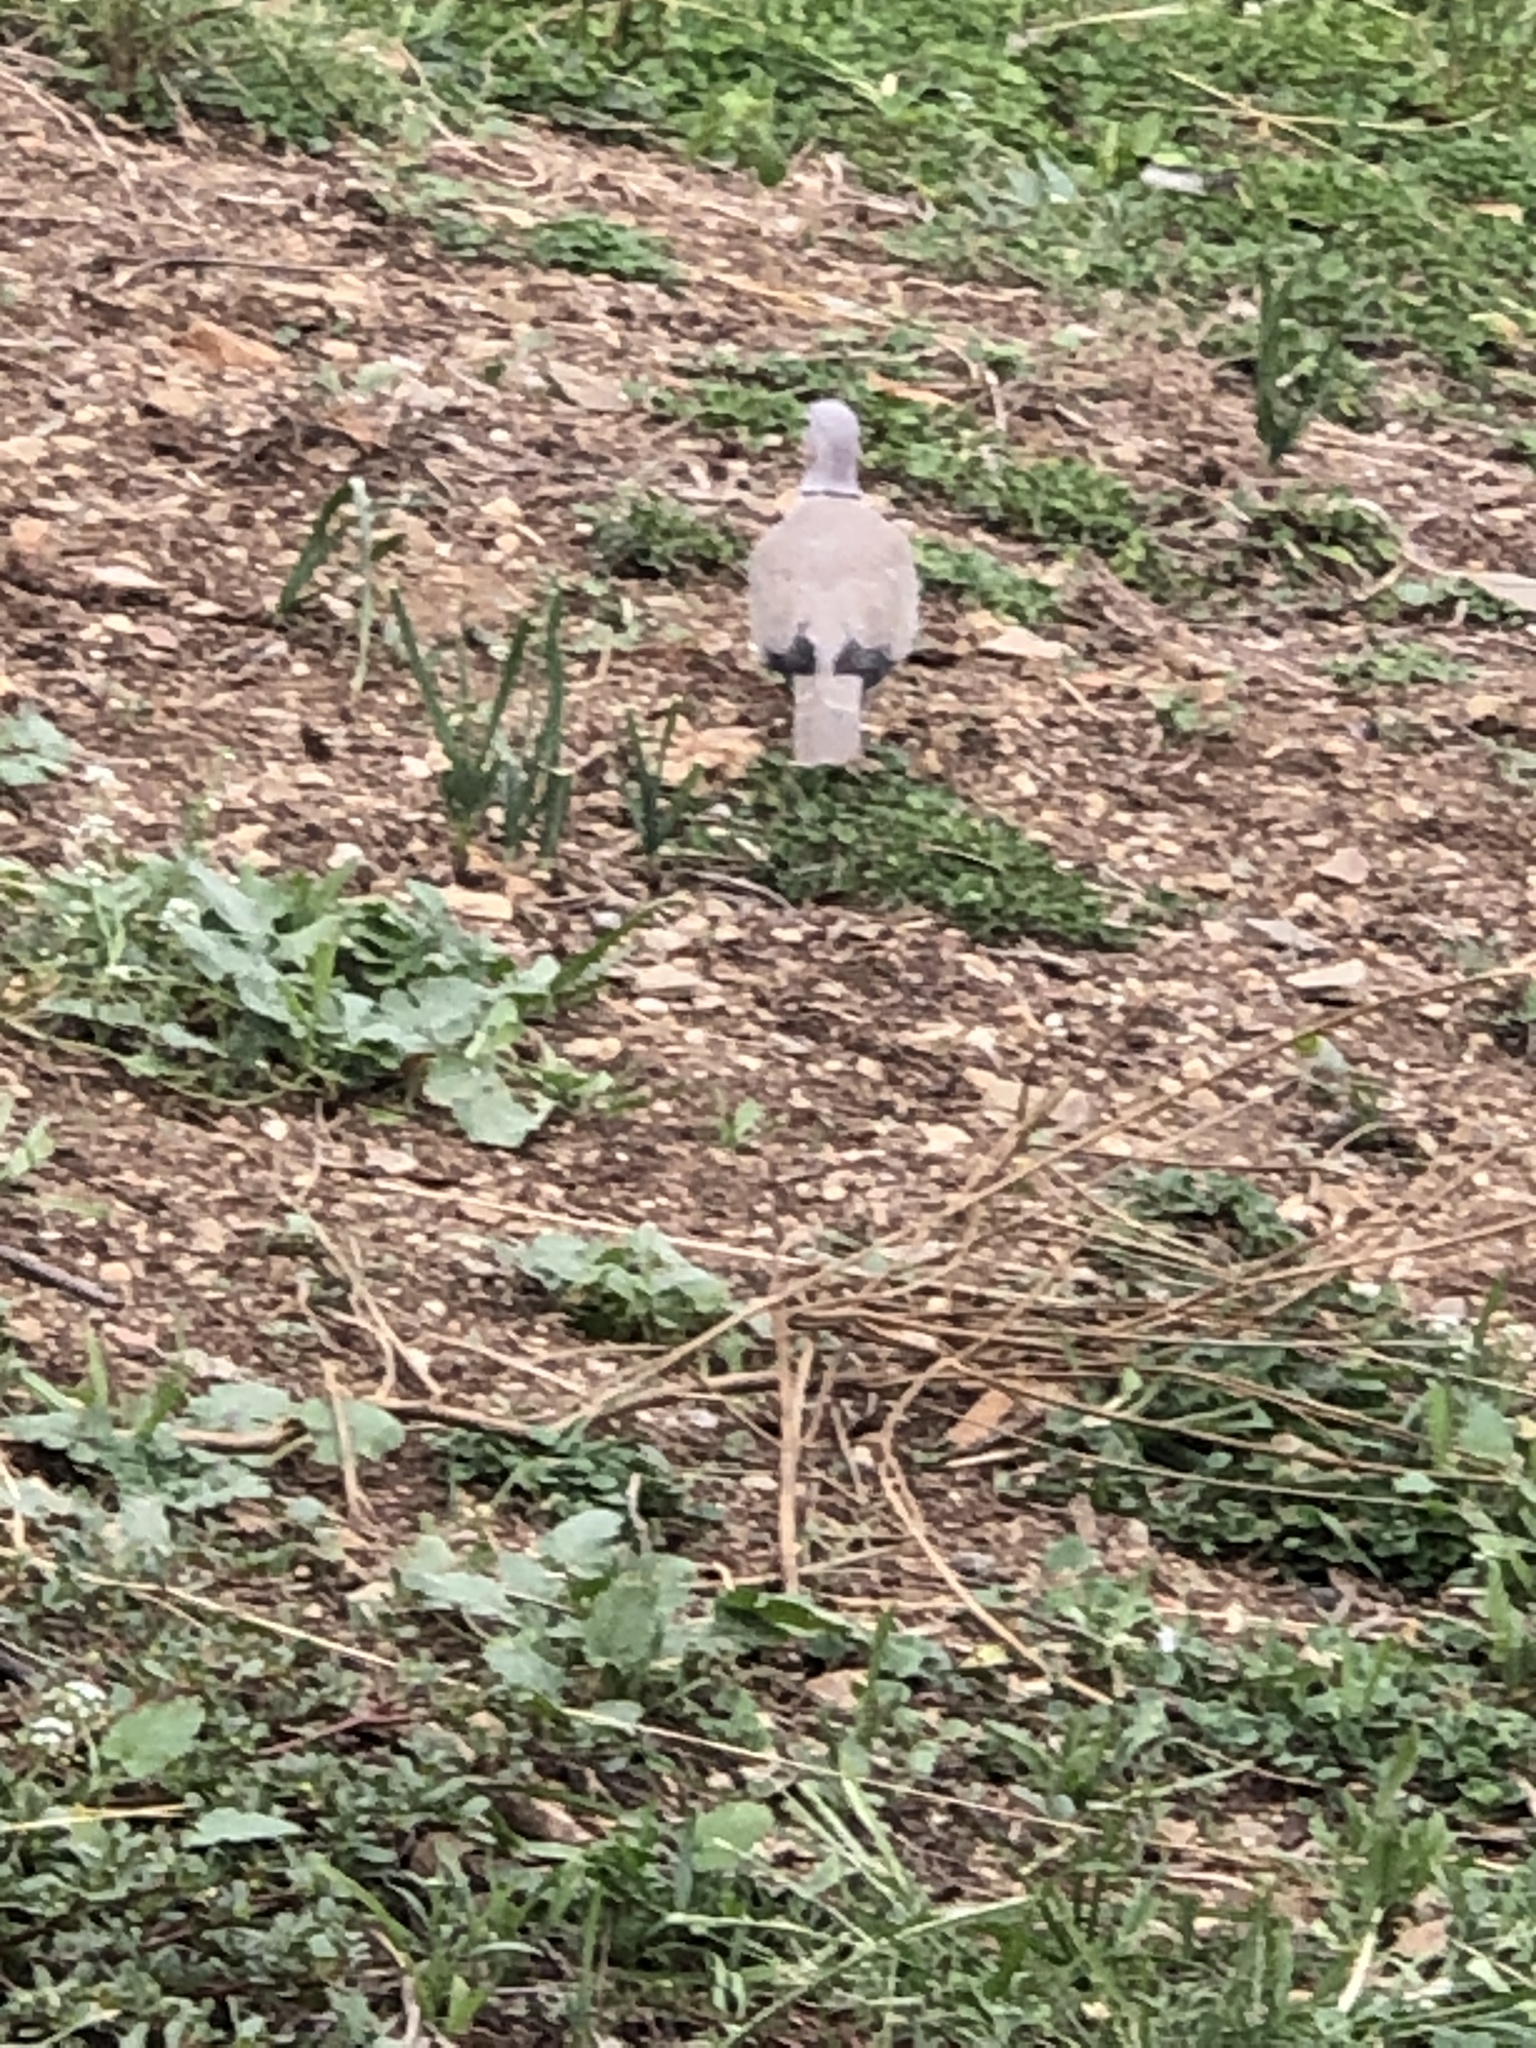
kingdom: Animalia
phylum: Chordata
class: Aves
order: Columbiformes
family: Columbidae
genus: Streptopelia
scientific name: Streptopelia decaocto
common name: Eurasian collared dove
